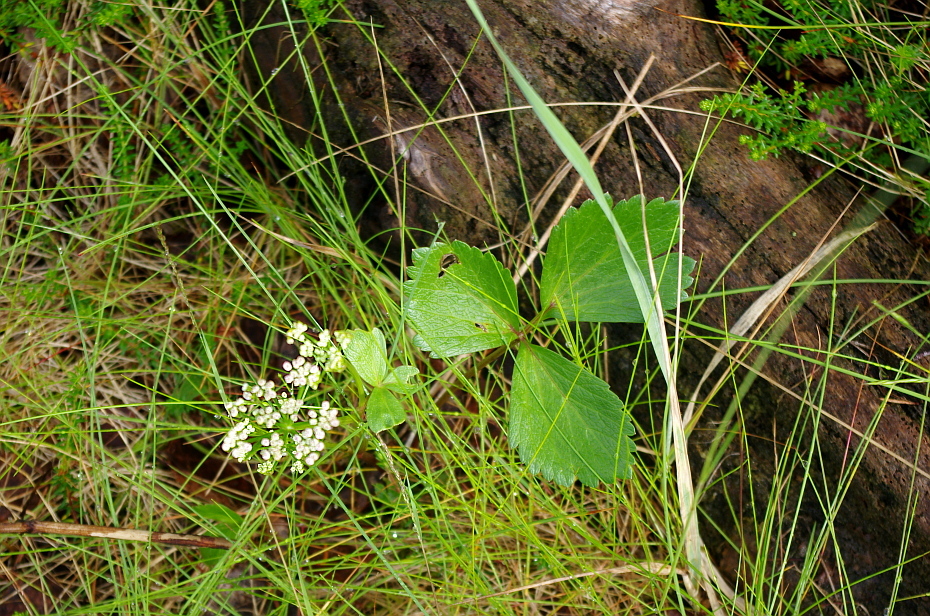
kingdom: Plantae
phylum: Tracheophyta
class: Magnoliopsida
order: Apiales
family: Apiaceae
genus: Ligusticum
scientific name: Ligusticum scothicum
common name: Beach lovage
